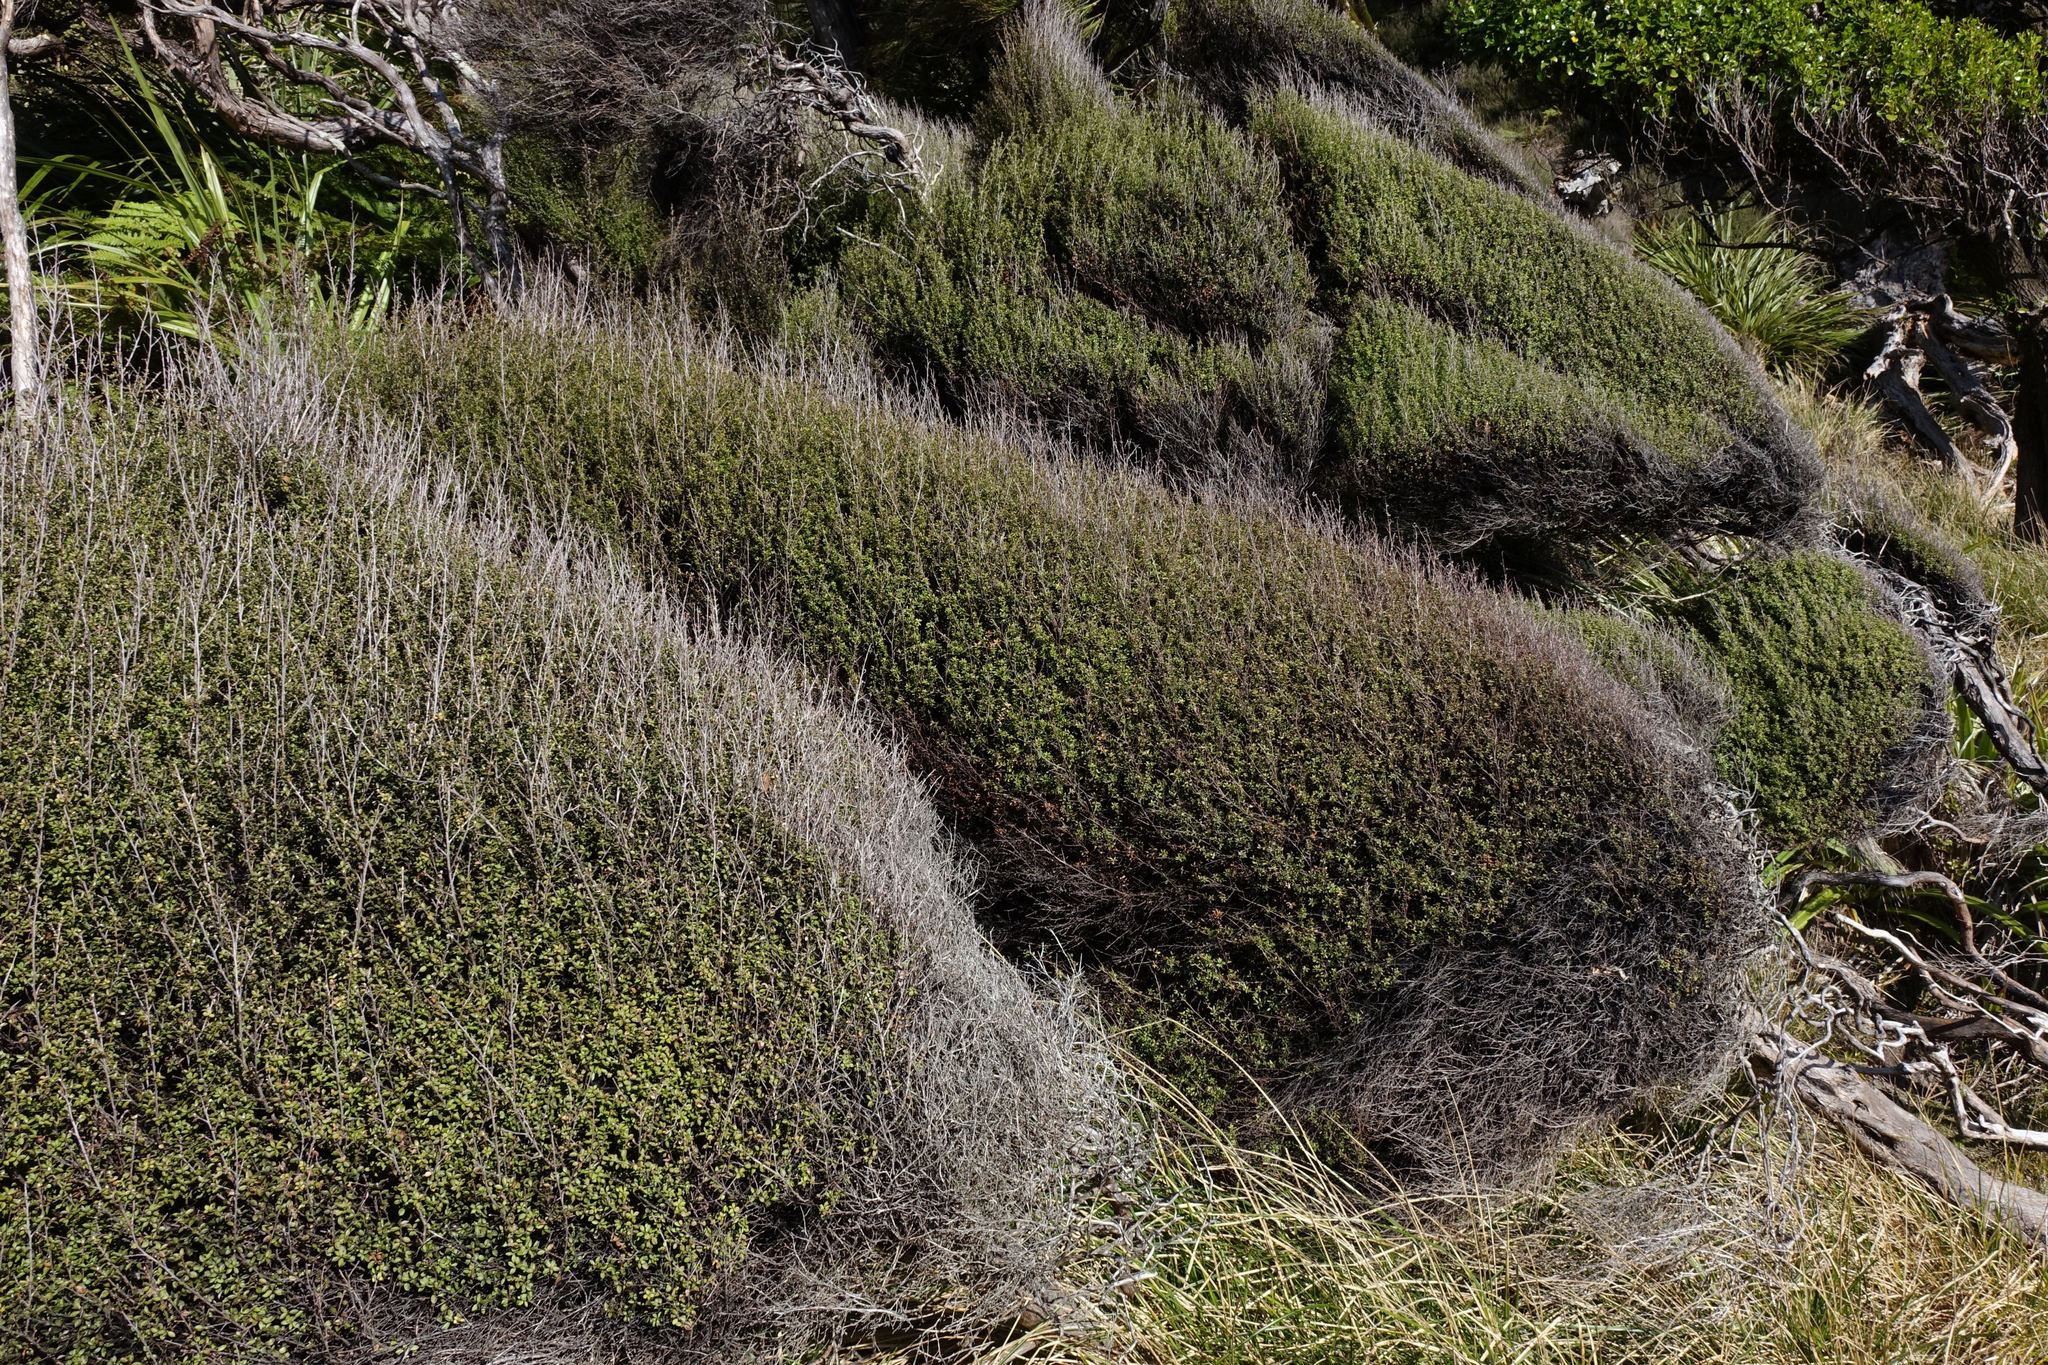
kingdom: Plantae
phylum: Tracheophyta
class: Magnoliopsida
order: Myrtales
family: Myrtaceae
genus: Leptospermum
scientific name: Leptospermum scoparium
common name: Broom tea-tree
